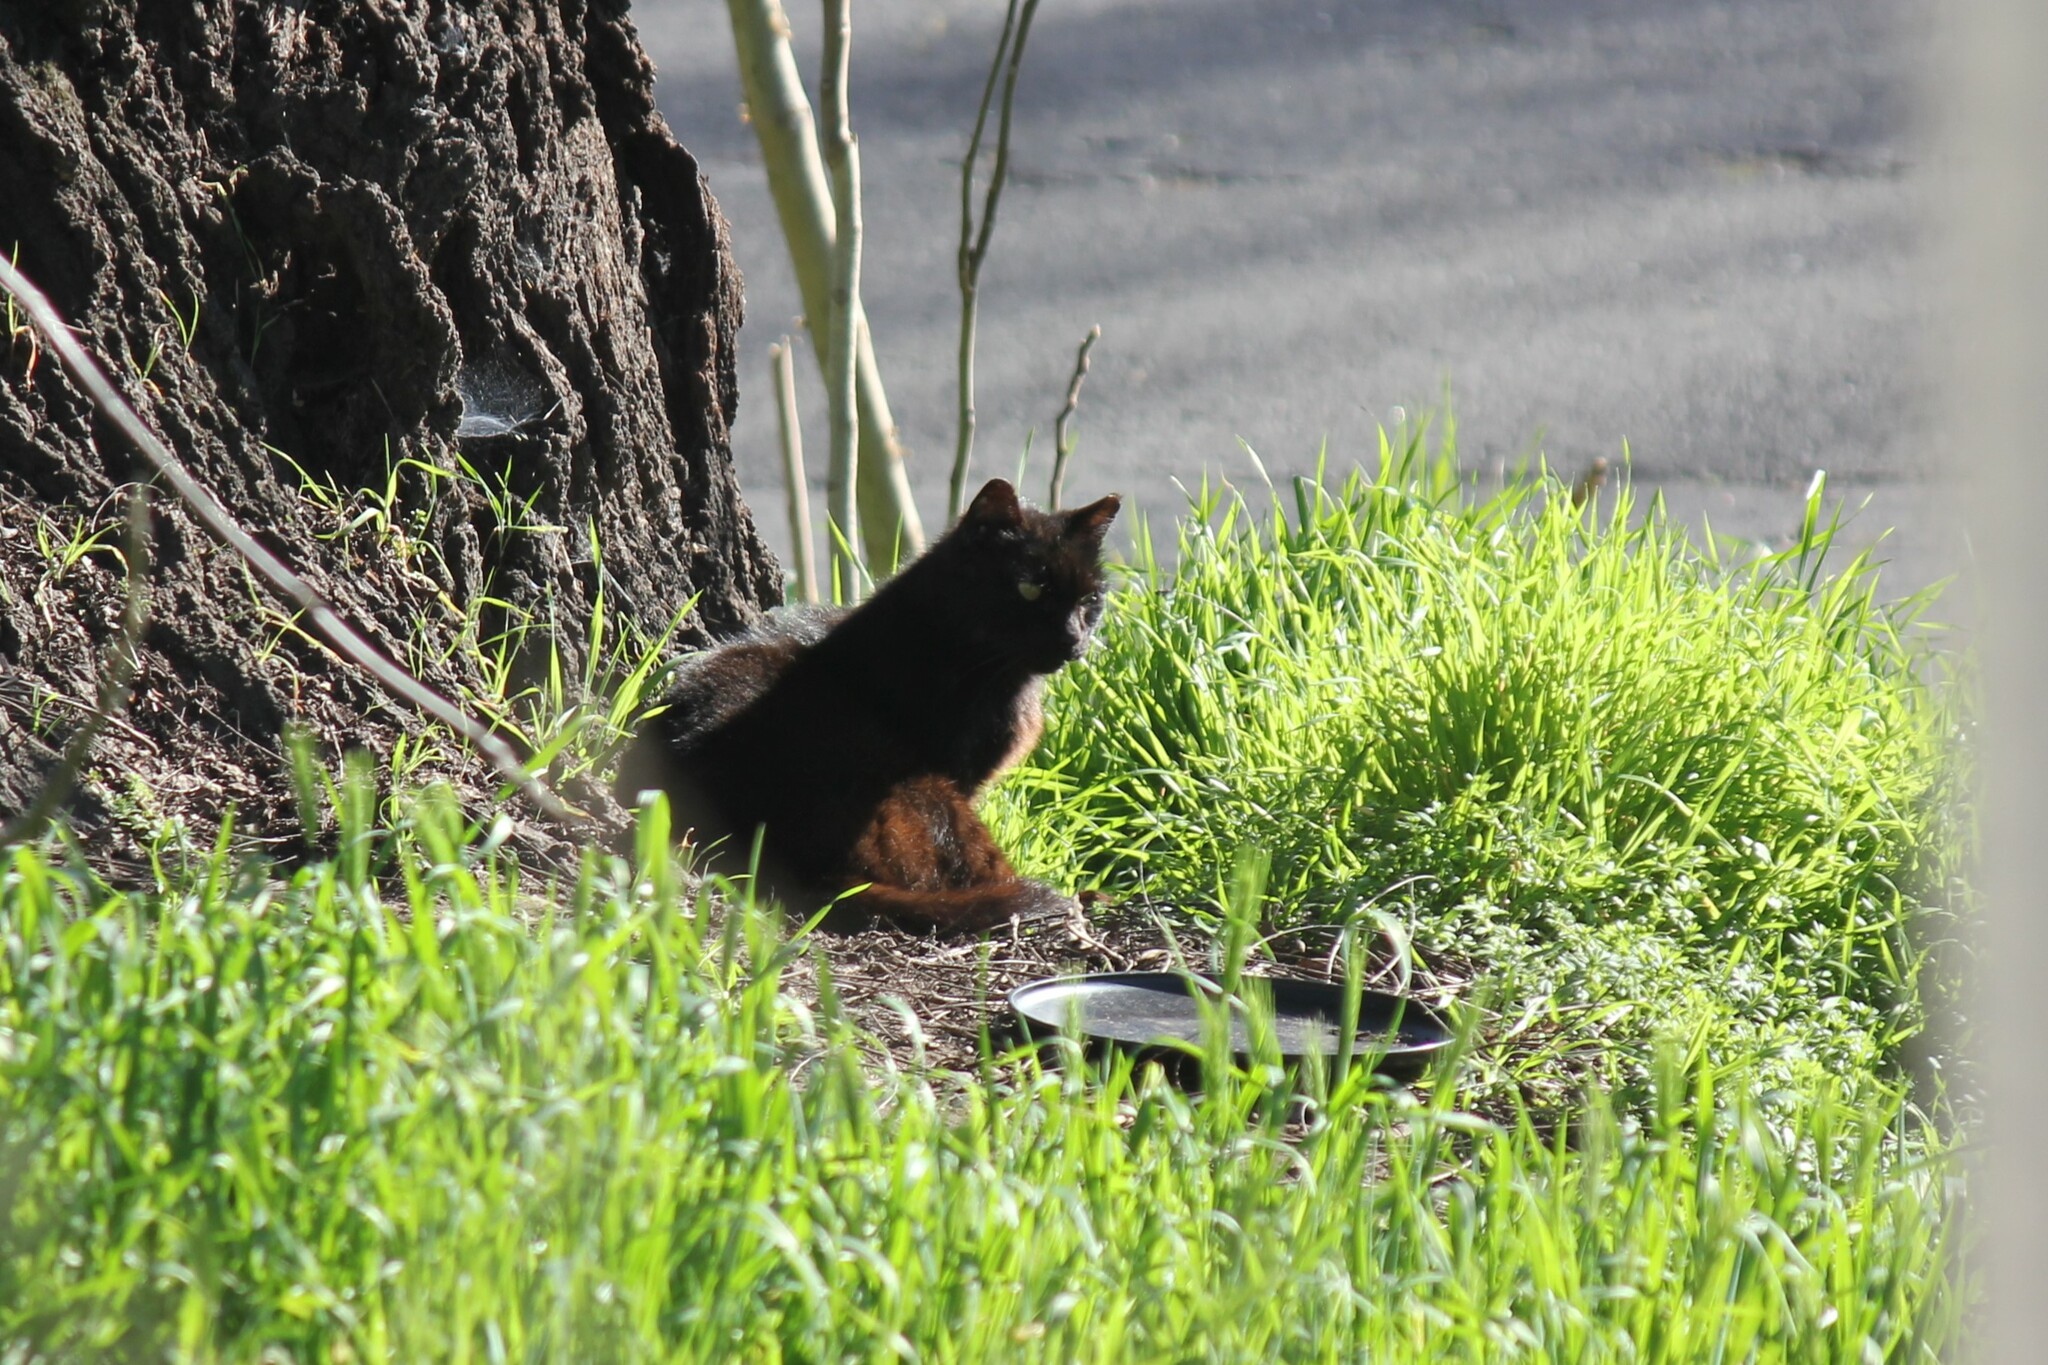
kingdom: Animalia
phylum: Chordata
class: Mammalia
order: Carnivora
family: Felidae
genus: Felis
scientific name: Felis catus
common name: Domestic cat
